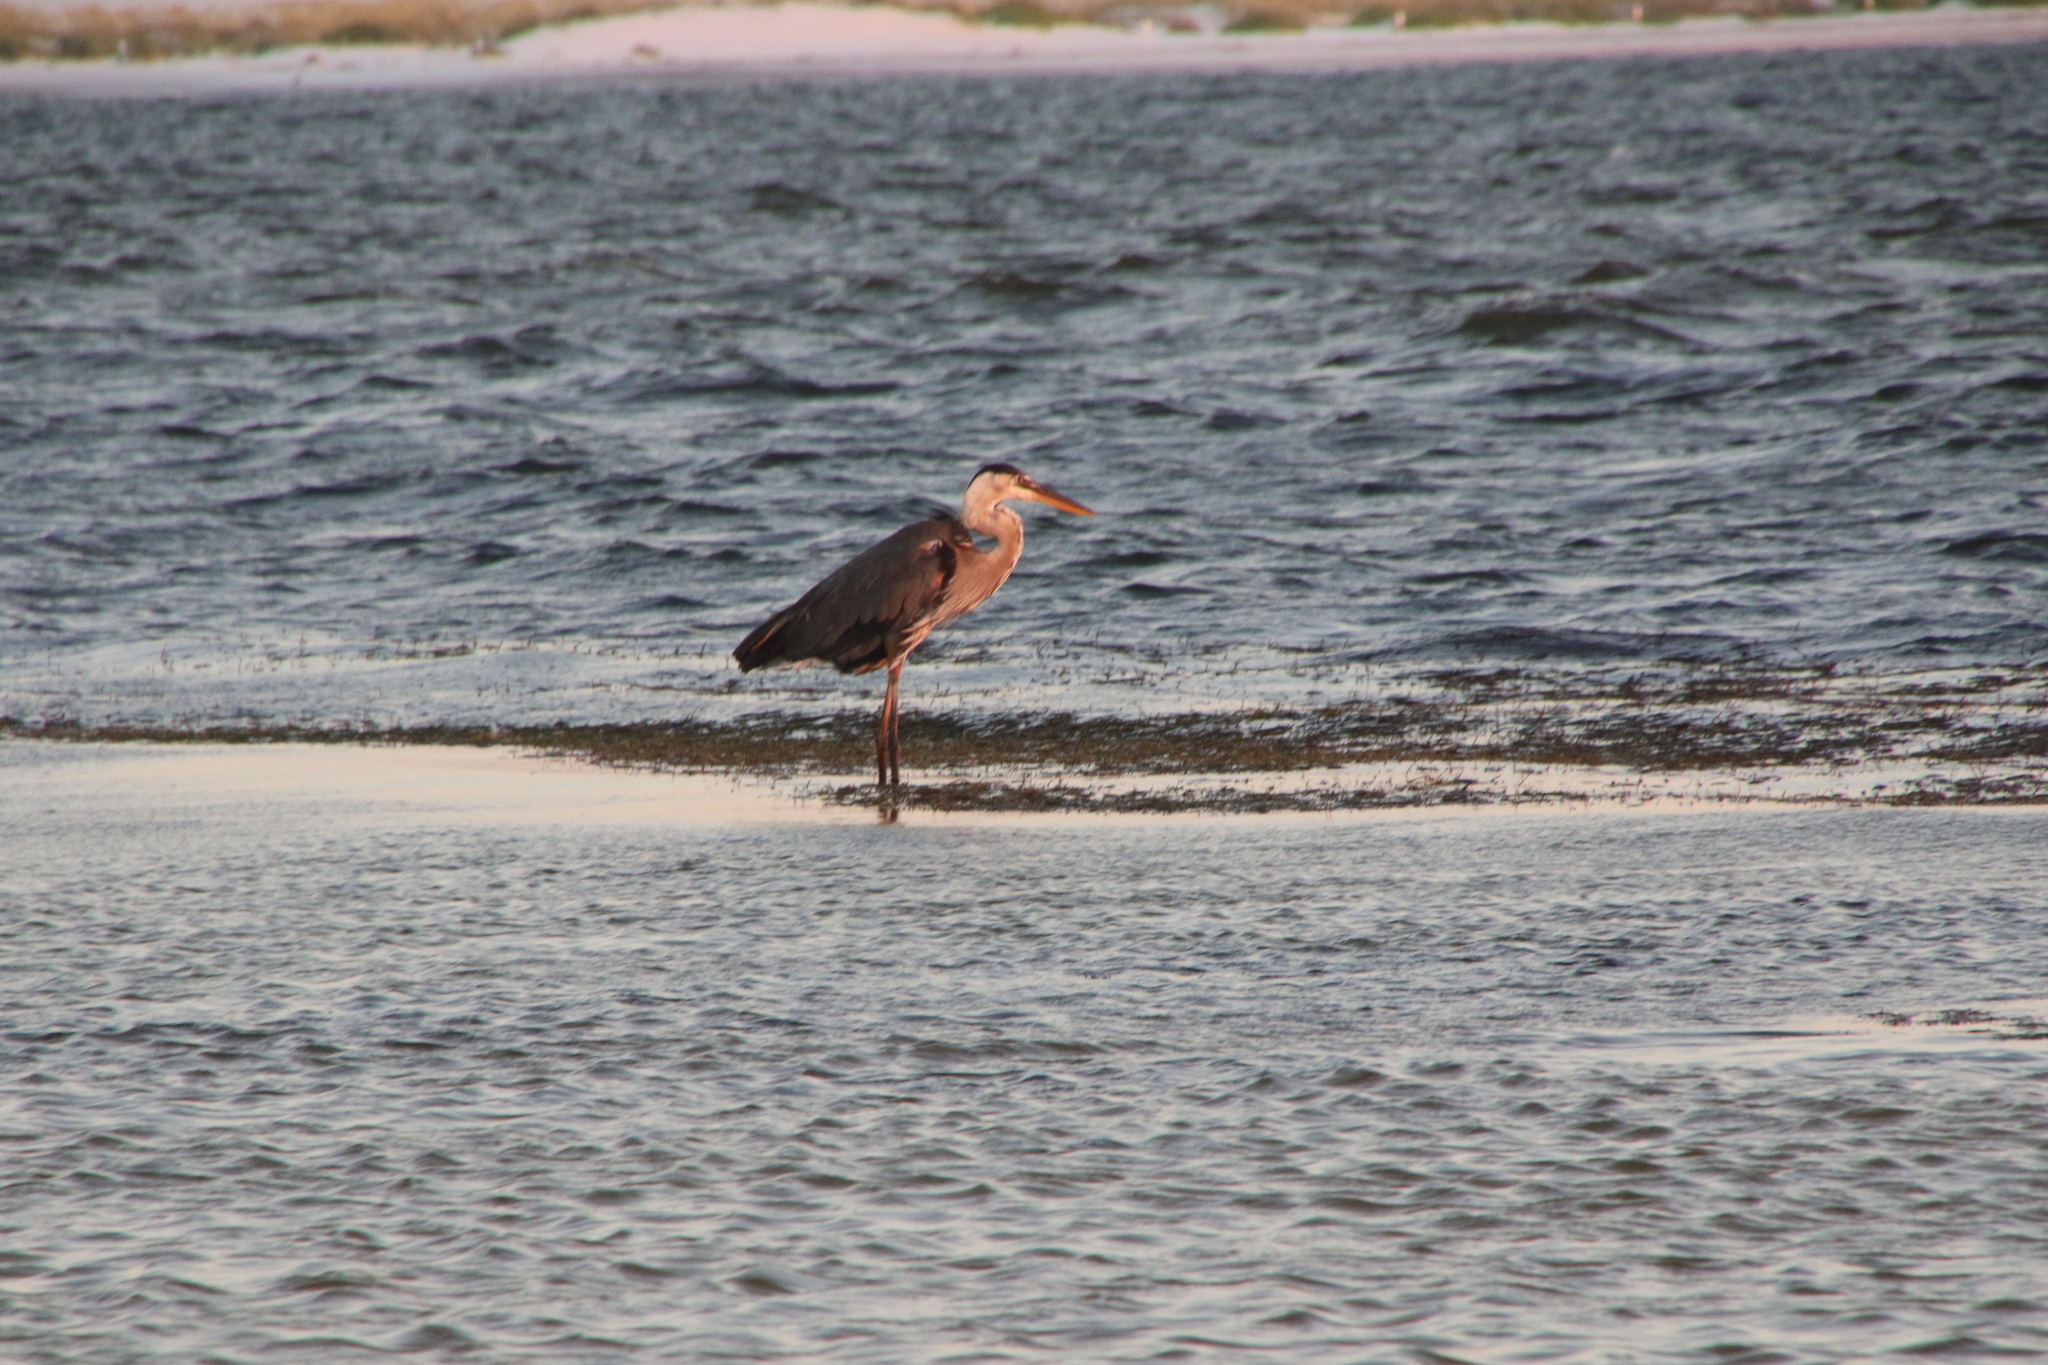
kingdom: Animalia
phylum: Chordata
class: Aves
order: Pelecaniformes
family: Ardeidae
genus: Ardea
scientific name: Ardea herodias
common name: Great blue heron
